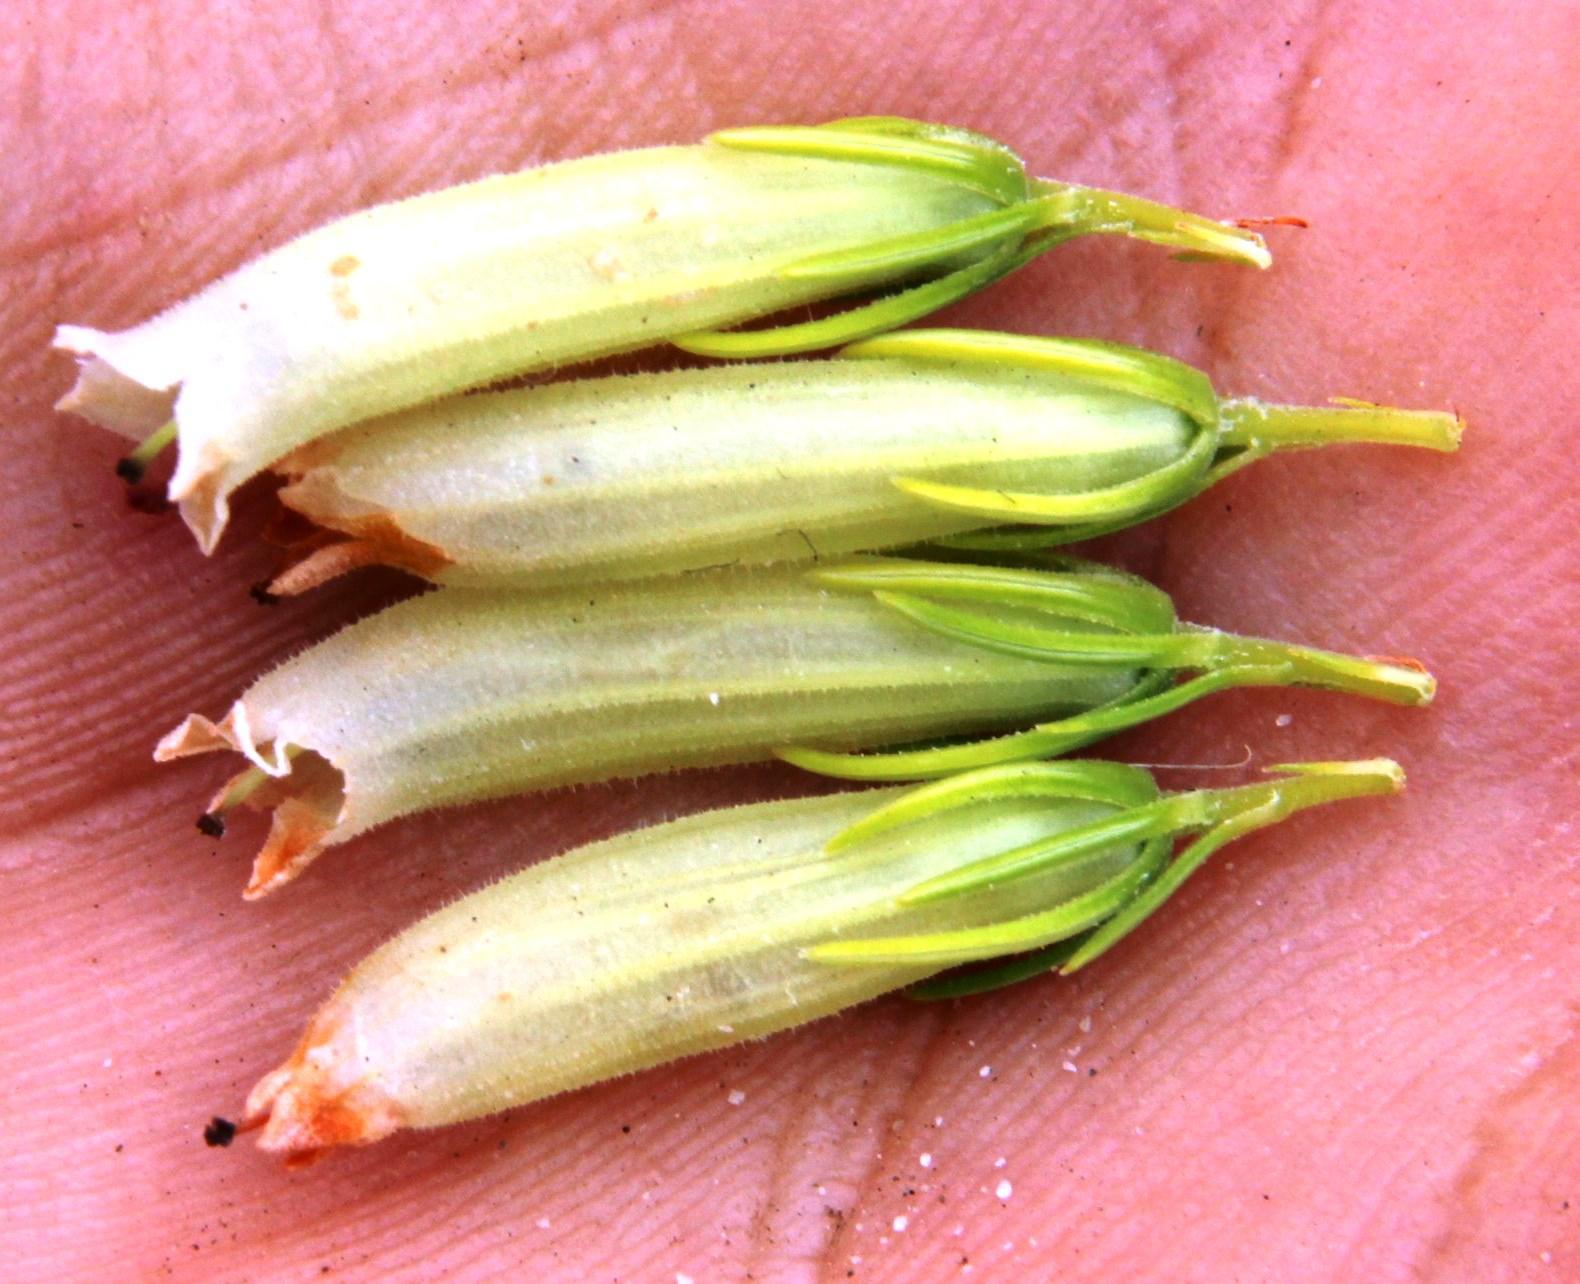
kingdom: Plantae
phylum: Tracheophyta
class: Magnoliopsida
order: Ericales
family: Ericaceae
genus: Erica
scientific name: Erica viscaria
